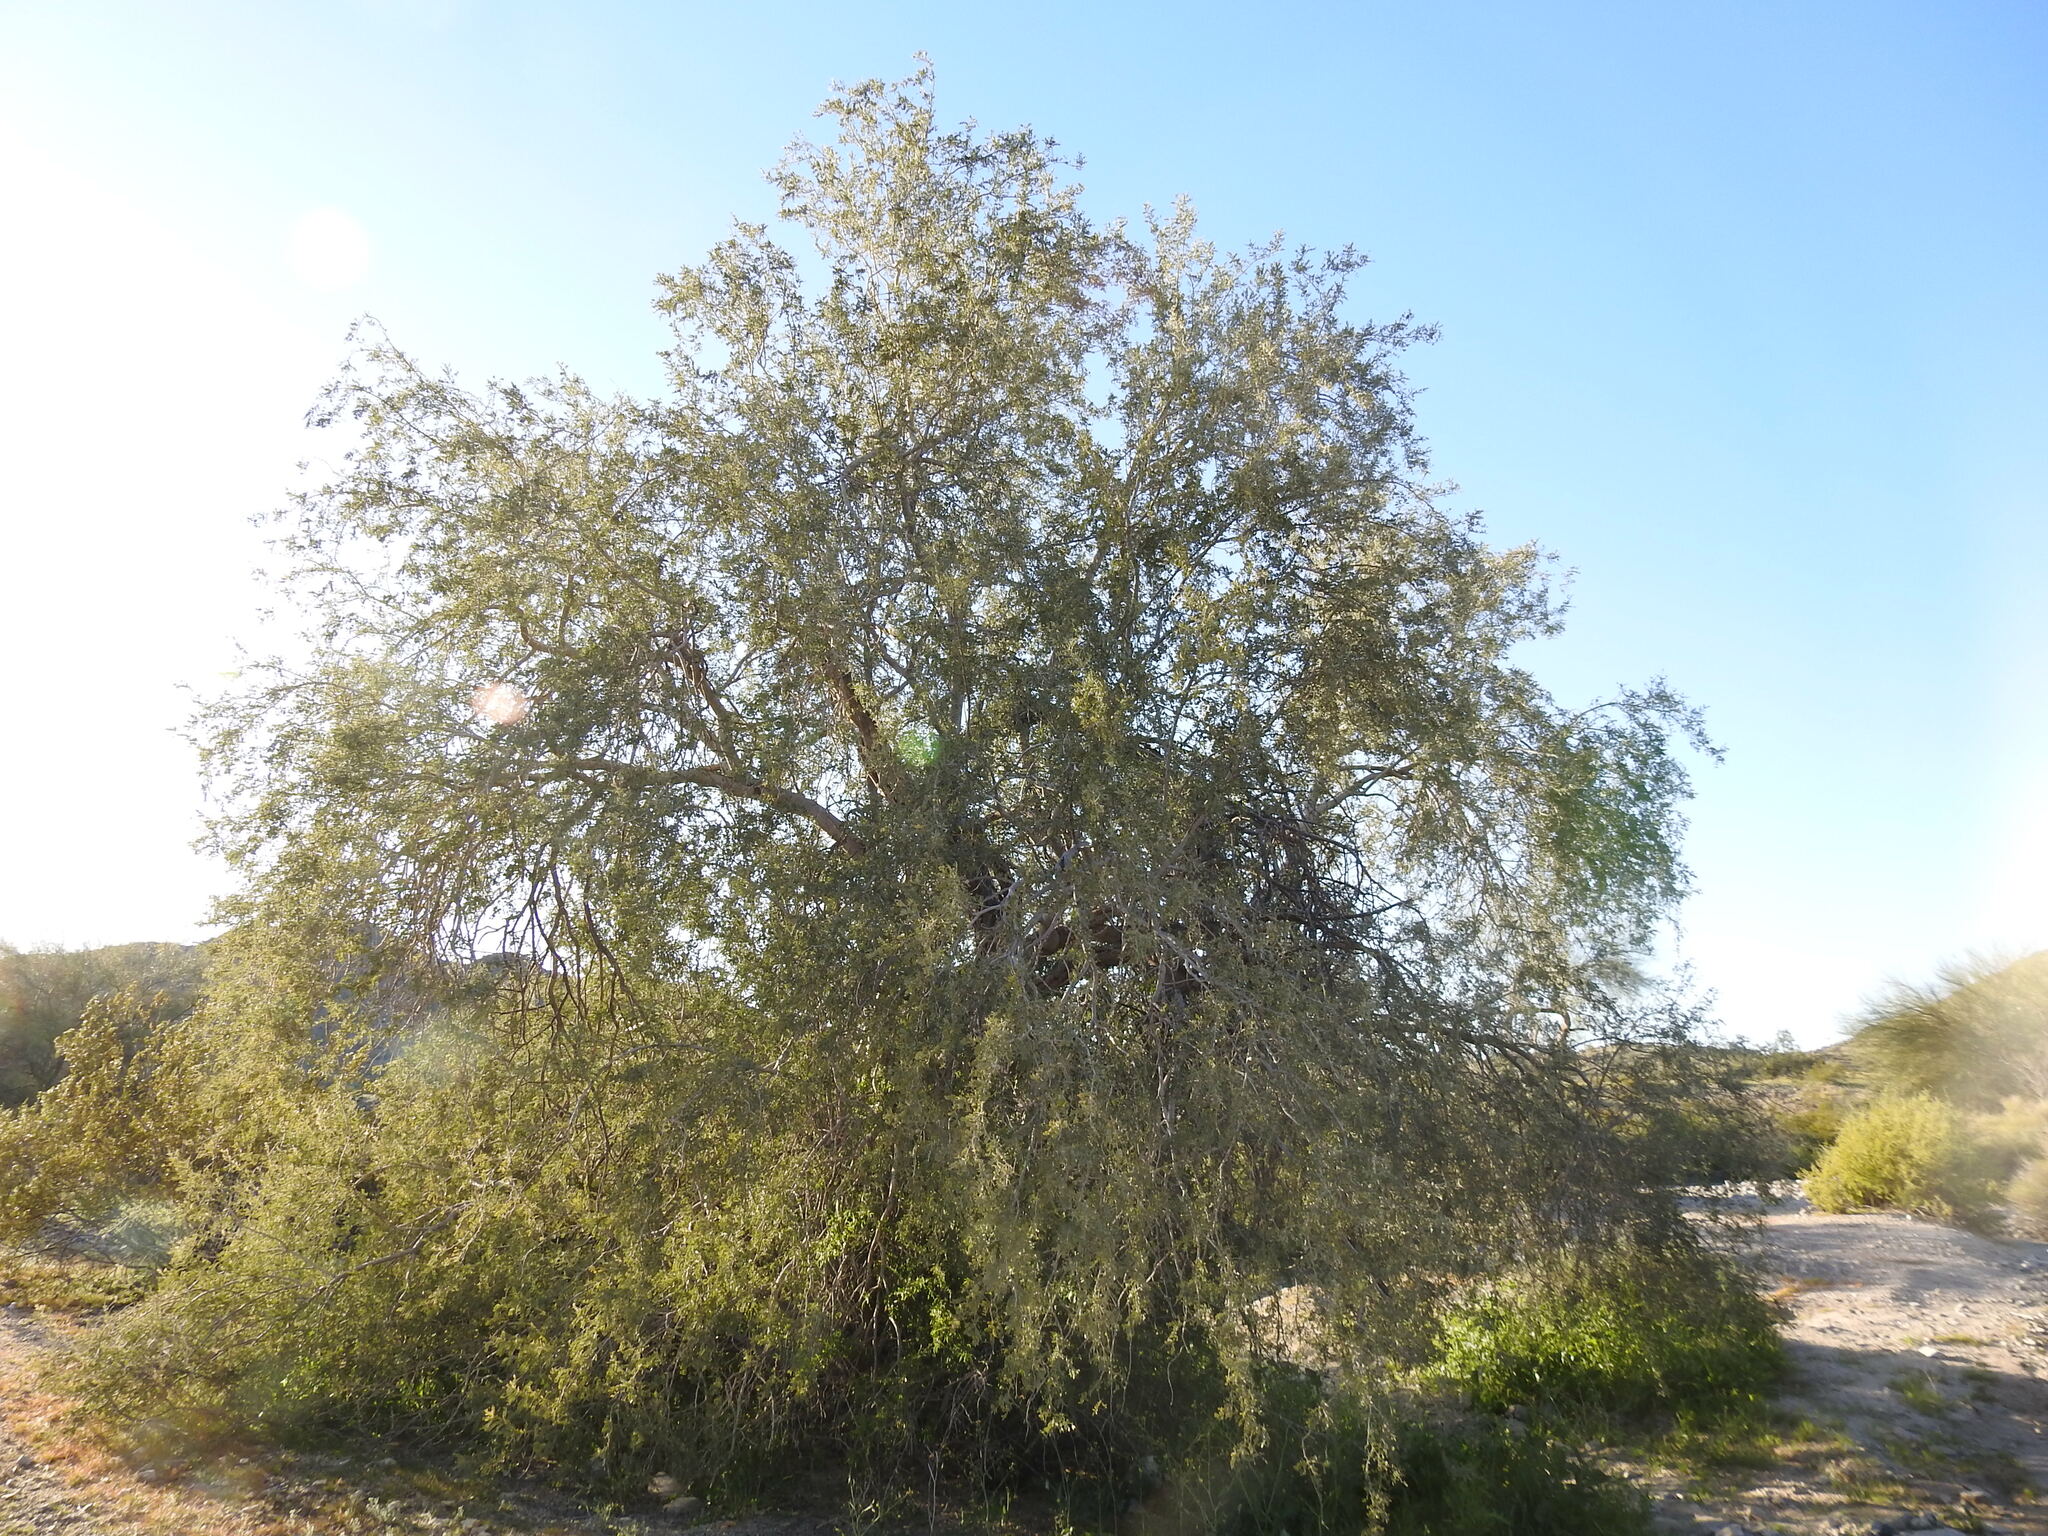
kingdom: Plantae
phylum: Tracheophyta
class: Magnoliopsida
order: Fabales
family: Fabaceae
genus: Olneya
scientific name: Olneya tesota
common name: Desert ironwood
